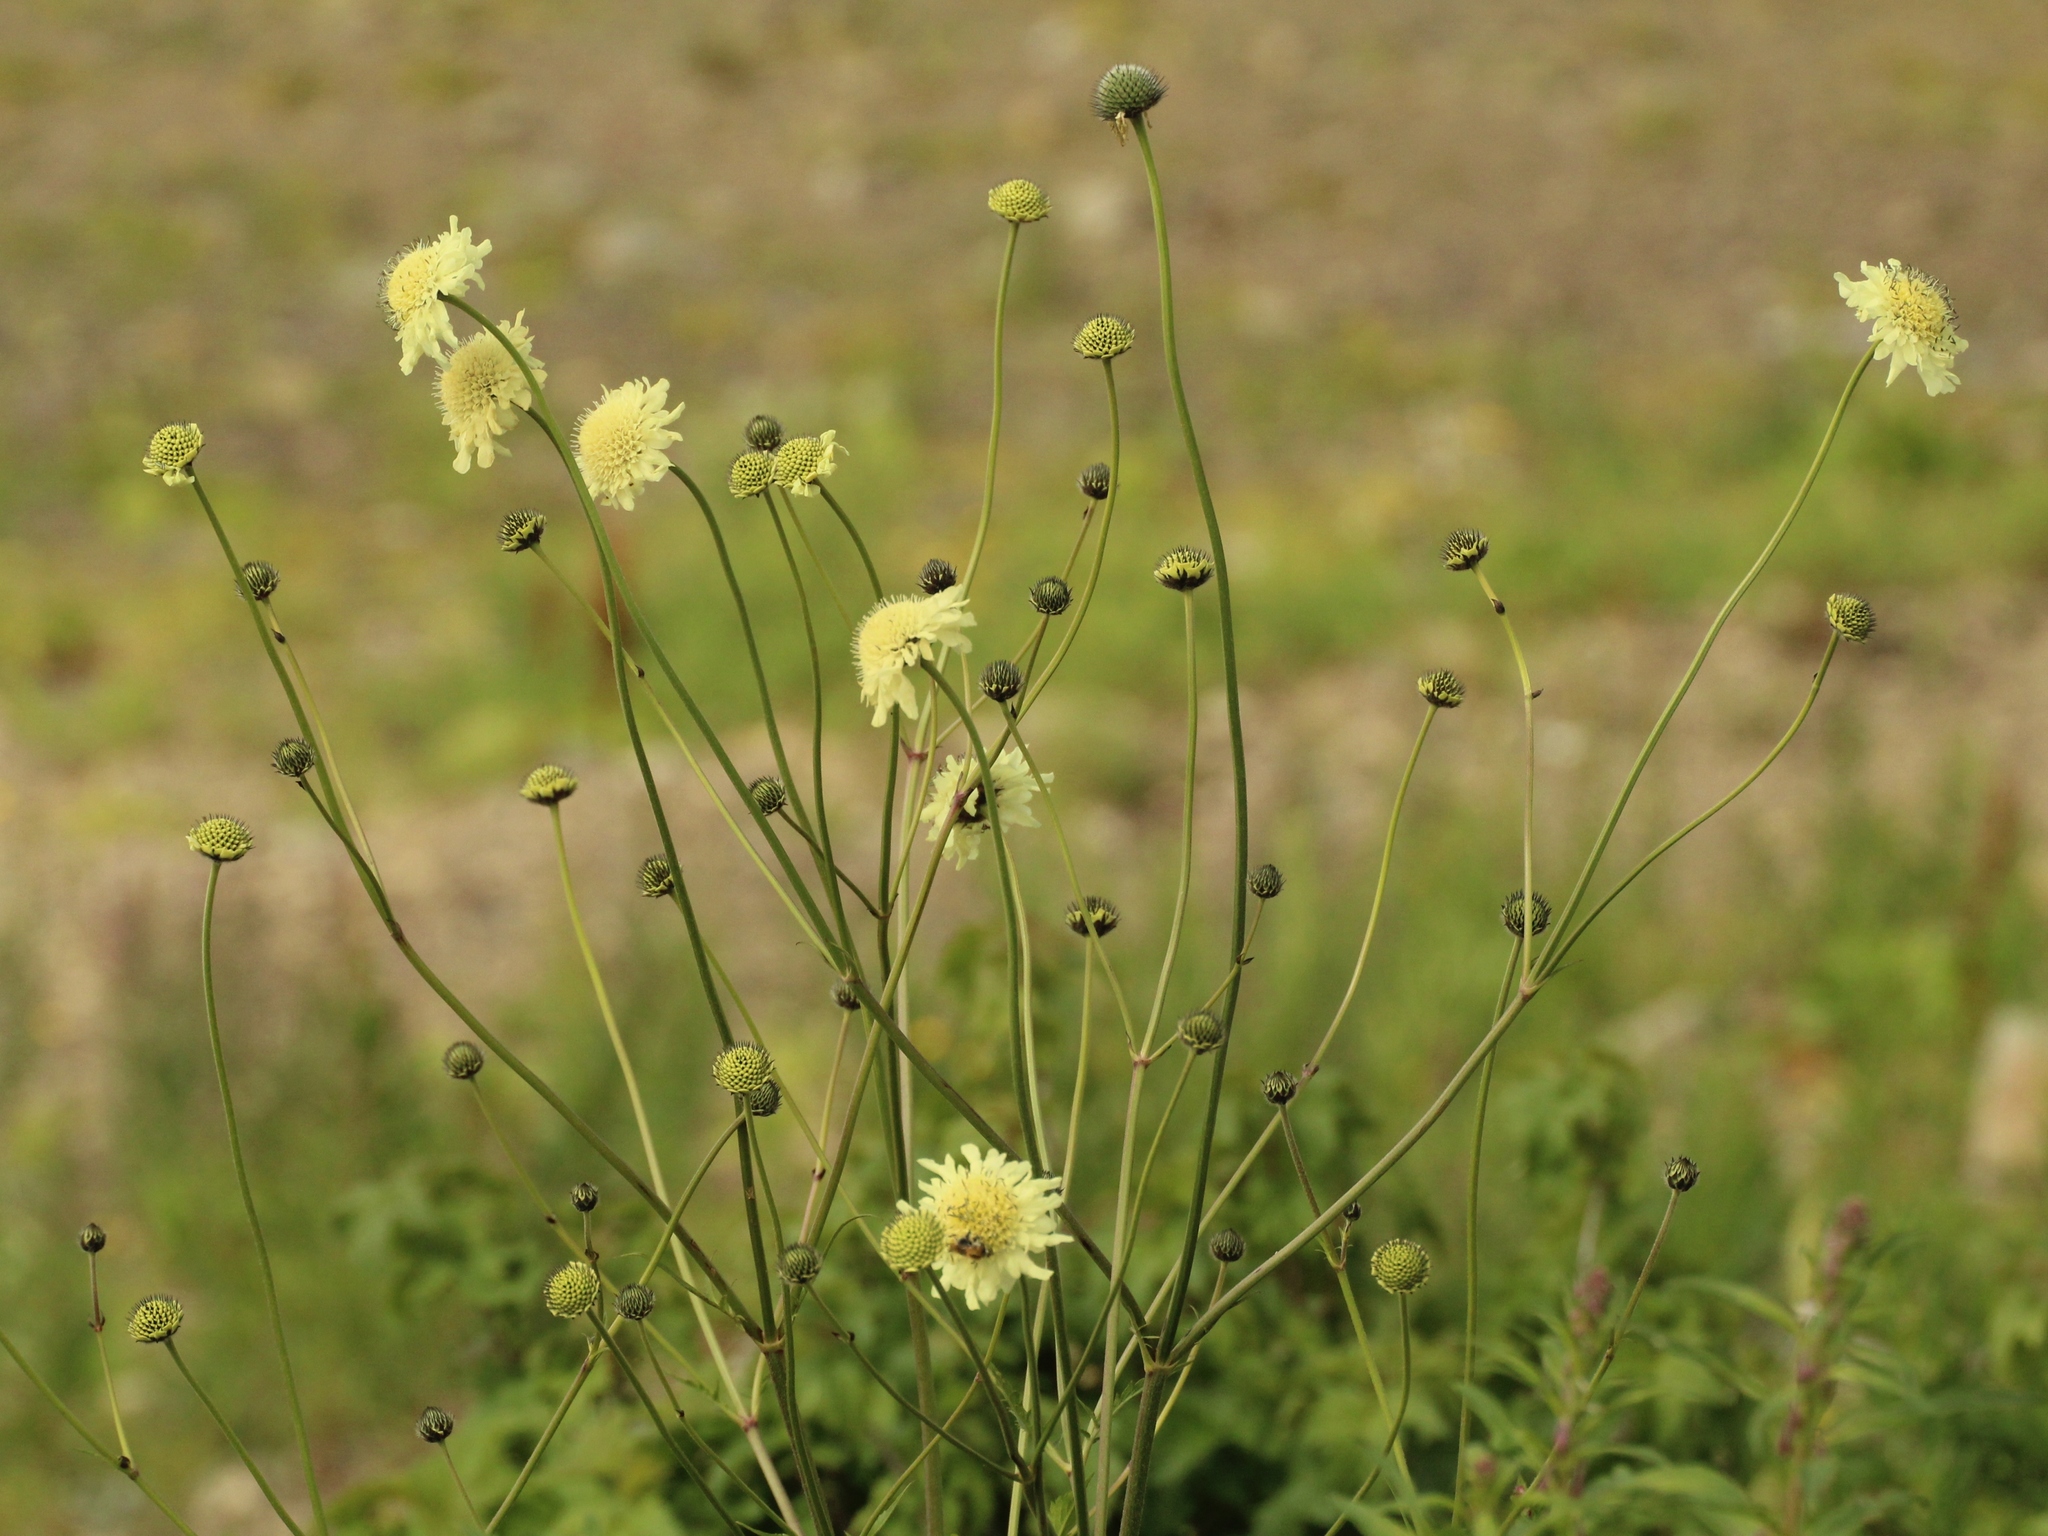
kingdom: Plantae
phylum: Tracheophyta
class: Magnoliopsida
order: Dipsacales
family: Caprifoliaceae
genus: Cephalaria
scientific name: Cephalaria gigantea
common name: Tatarian cephalaria
